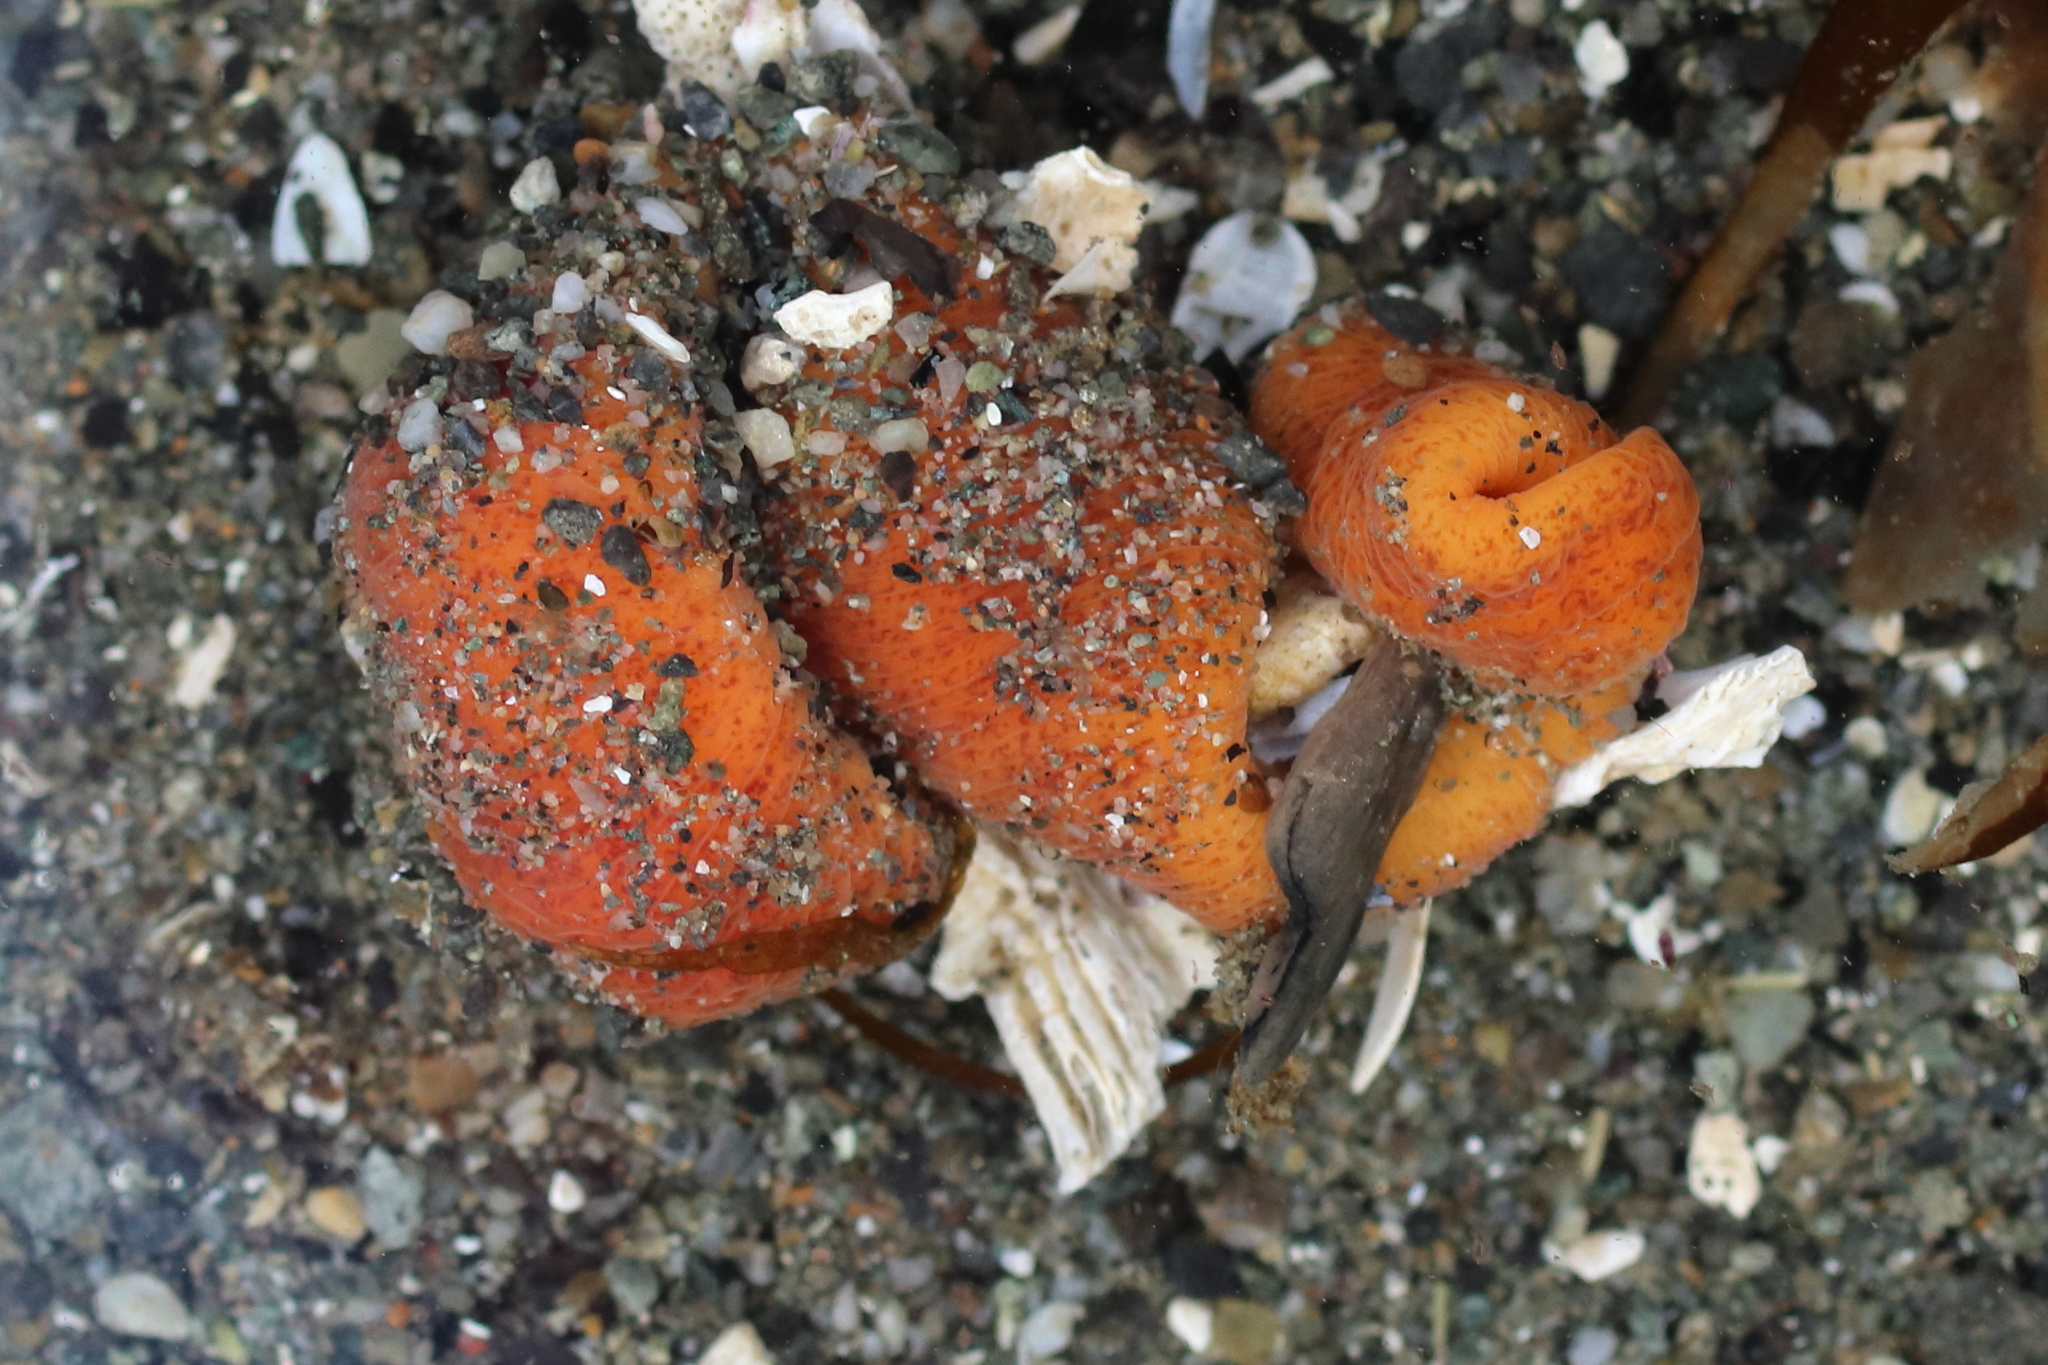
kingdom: Animalia
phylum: Nemertea
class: Palaeonemertea
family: Tubulanidae
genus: Tubulanus
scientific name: Tubulanus polymorphus
